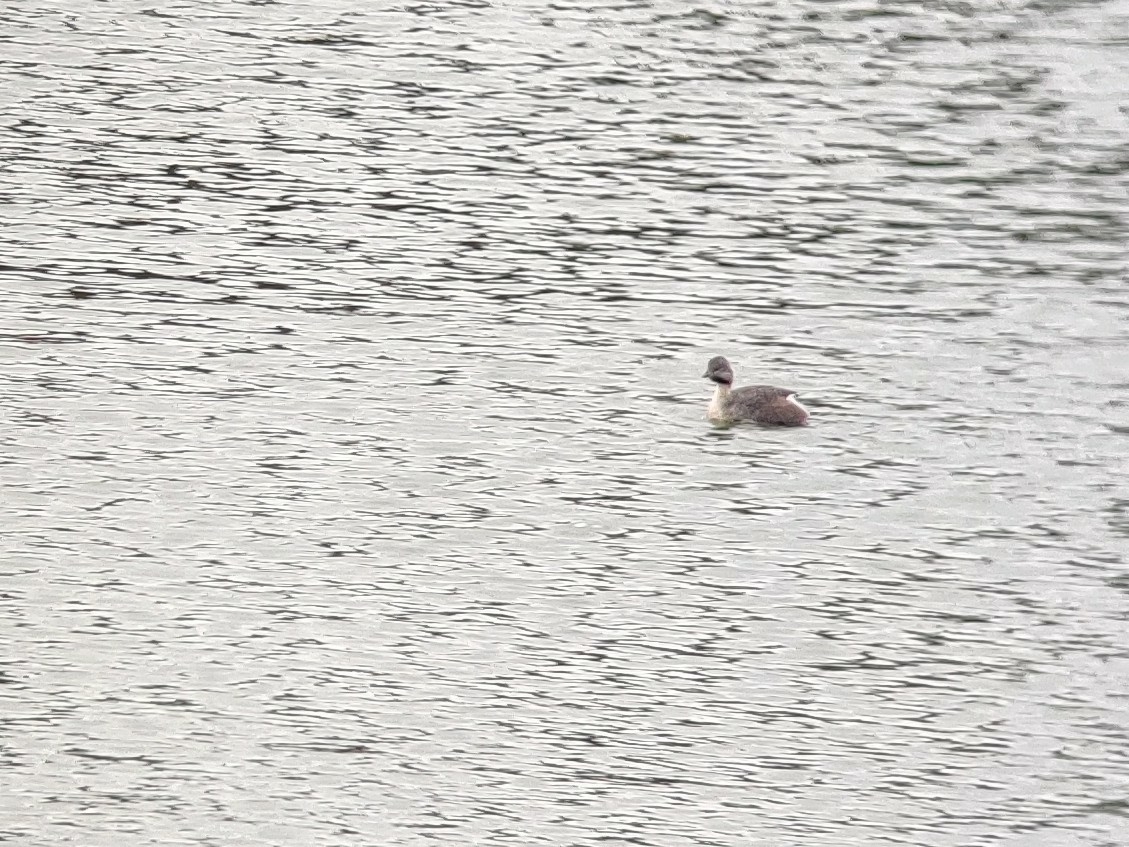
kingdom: Animalia
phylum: Chordata
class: Aves
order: Podicipediformes
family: Podicipedidae
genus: Poliocephalus
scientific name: Poliocephalus poliocephalus
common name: Hoary-headed grebe
